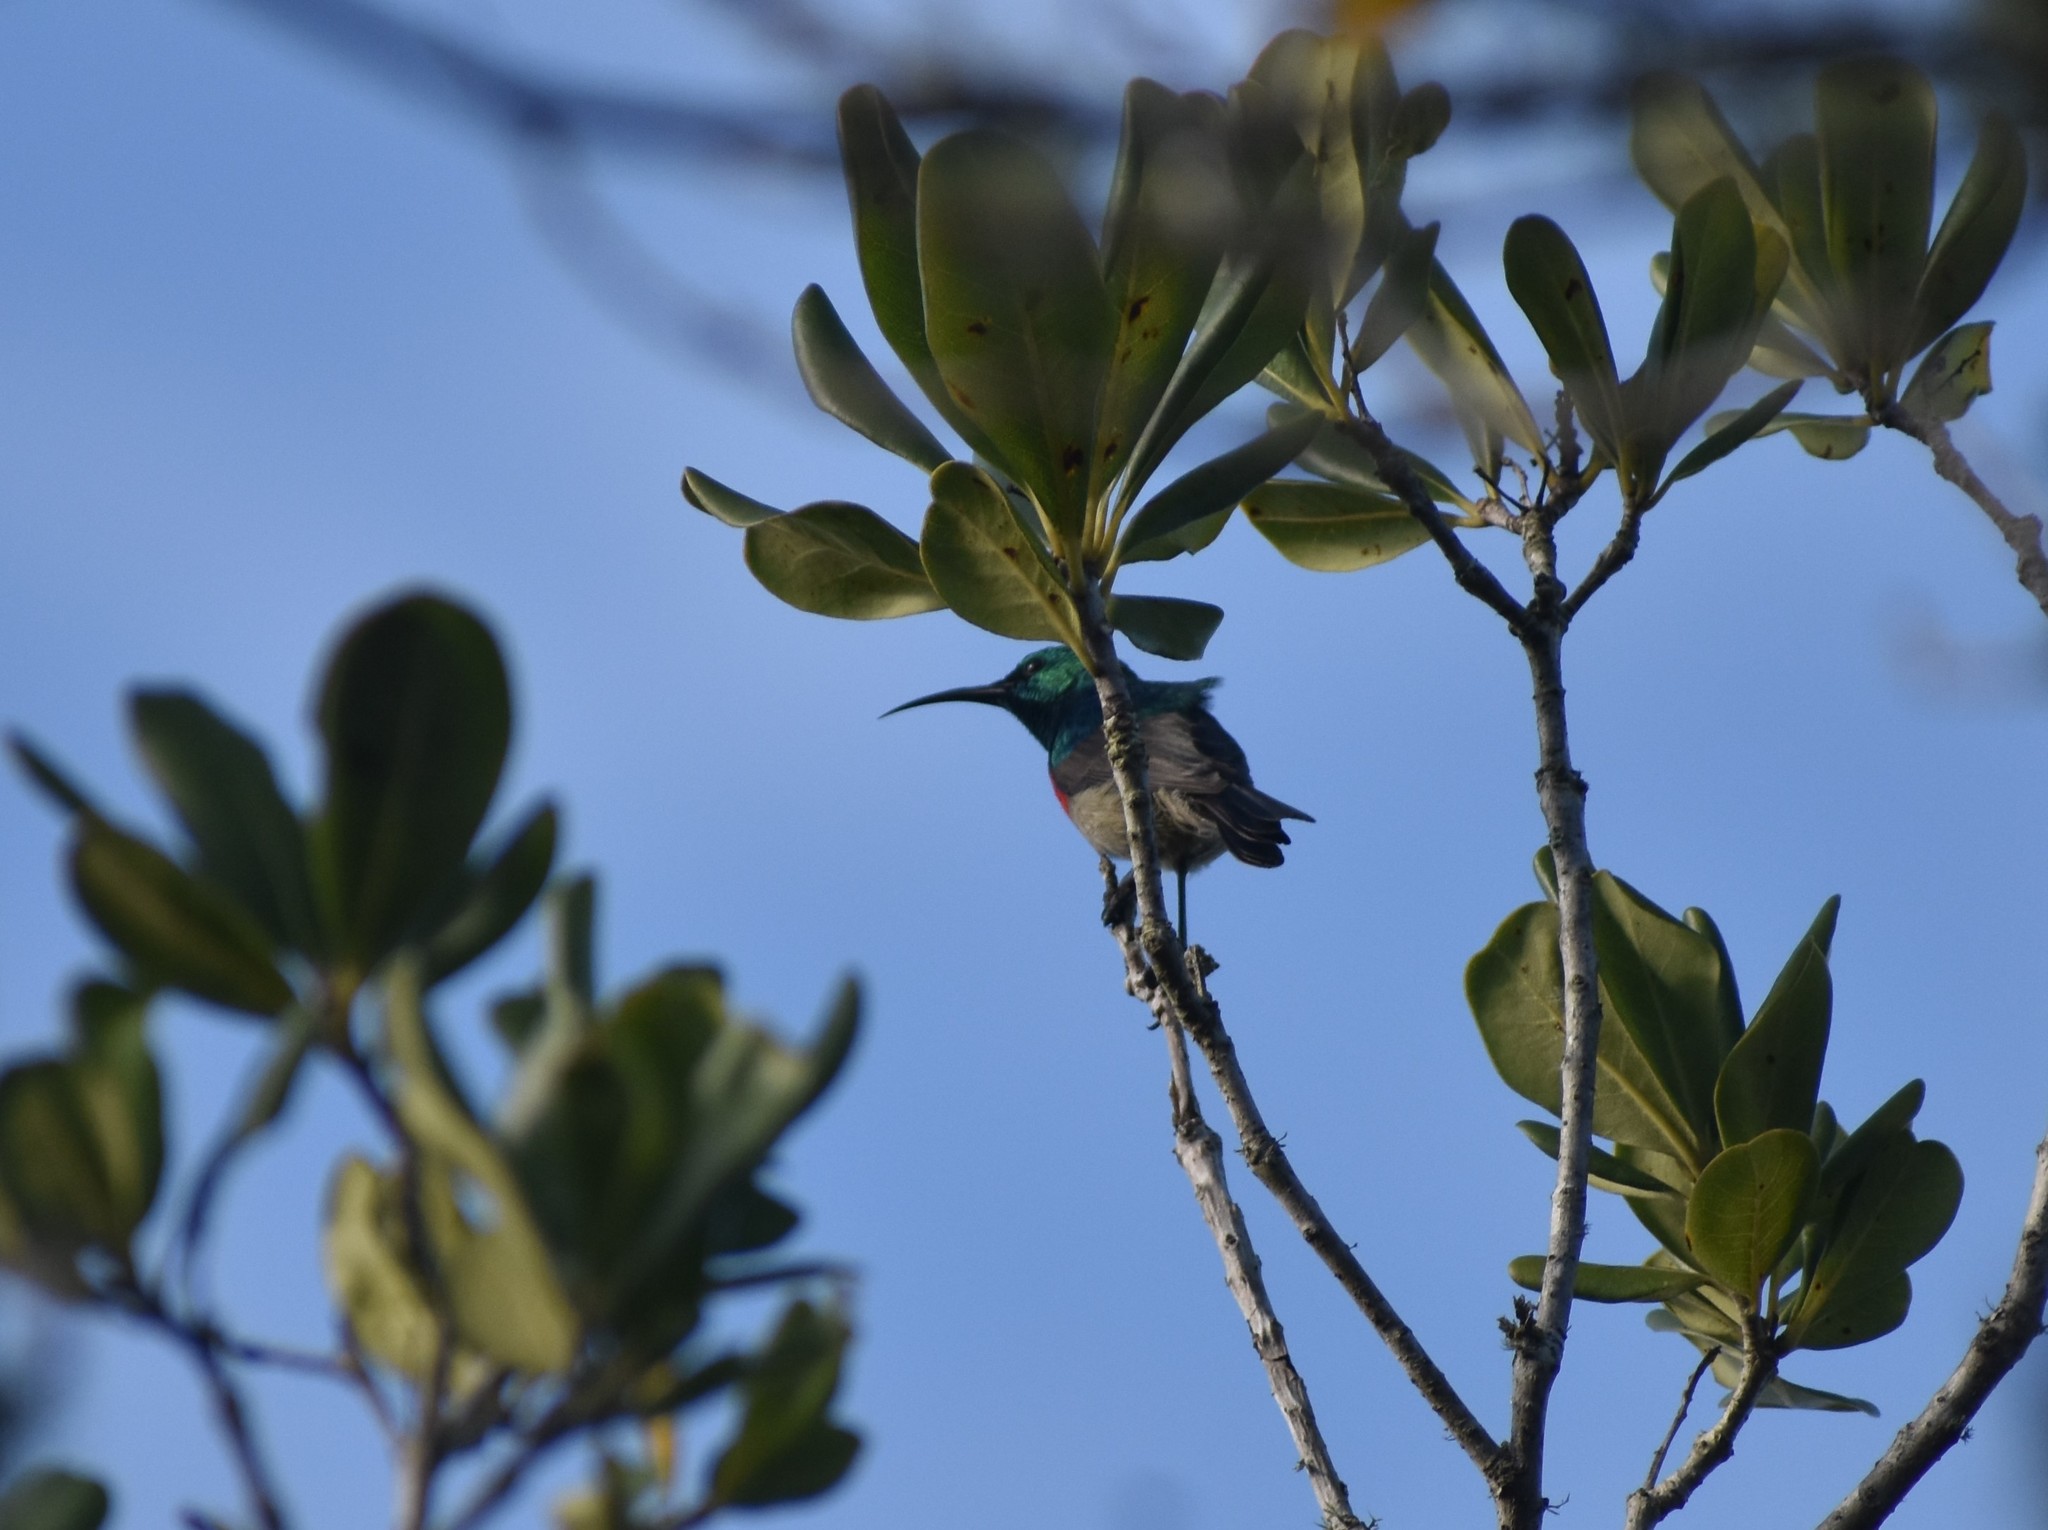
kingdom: Animalia
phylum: Chordata
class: Aves
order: Passeriformes
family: Nectariniidae
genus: Cinnyris
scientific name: Cinnyris afer
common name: Greater double-collared sunbird
